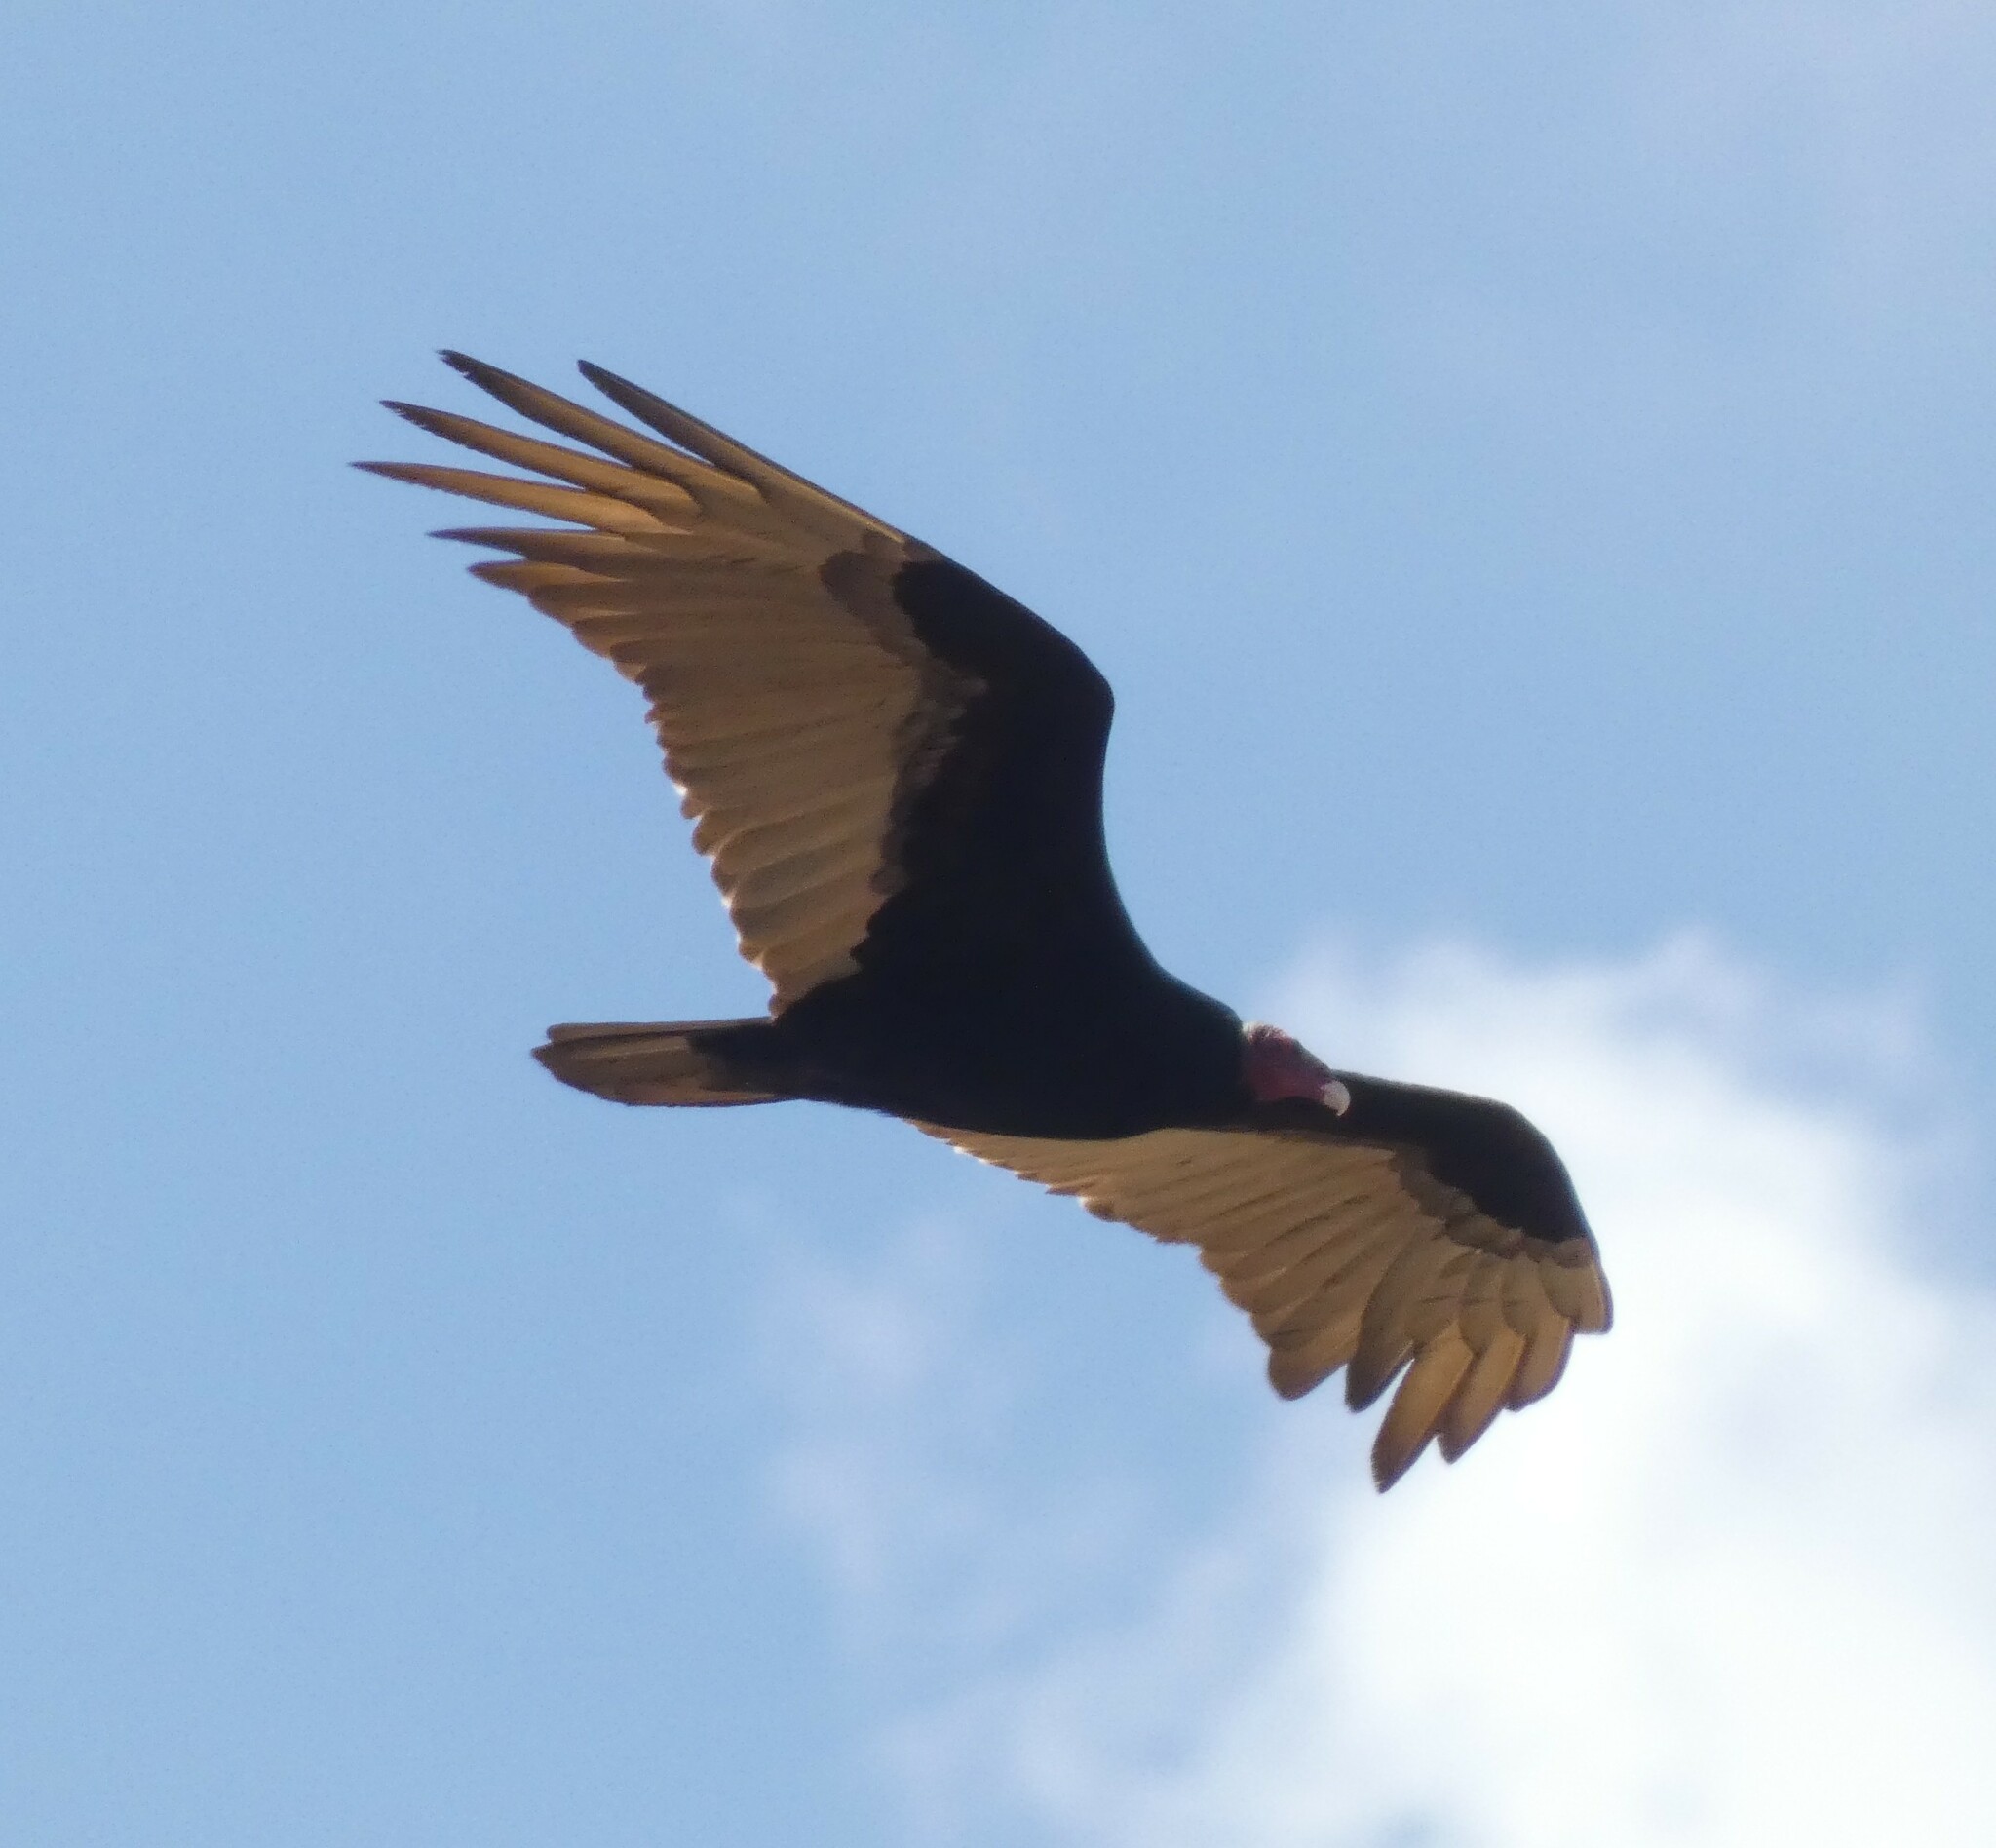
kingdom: Animalia
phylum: Chordata
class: Aves
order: Accipitriformes
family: Cathartidae
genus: Cathartes
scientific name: Cathartes aura
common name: Turkey vulture
